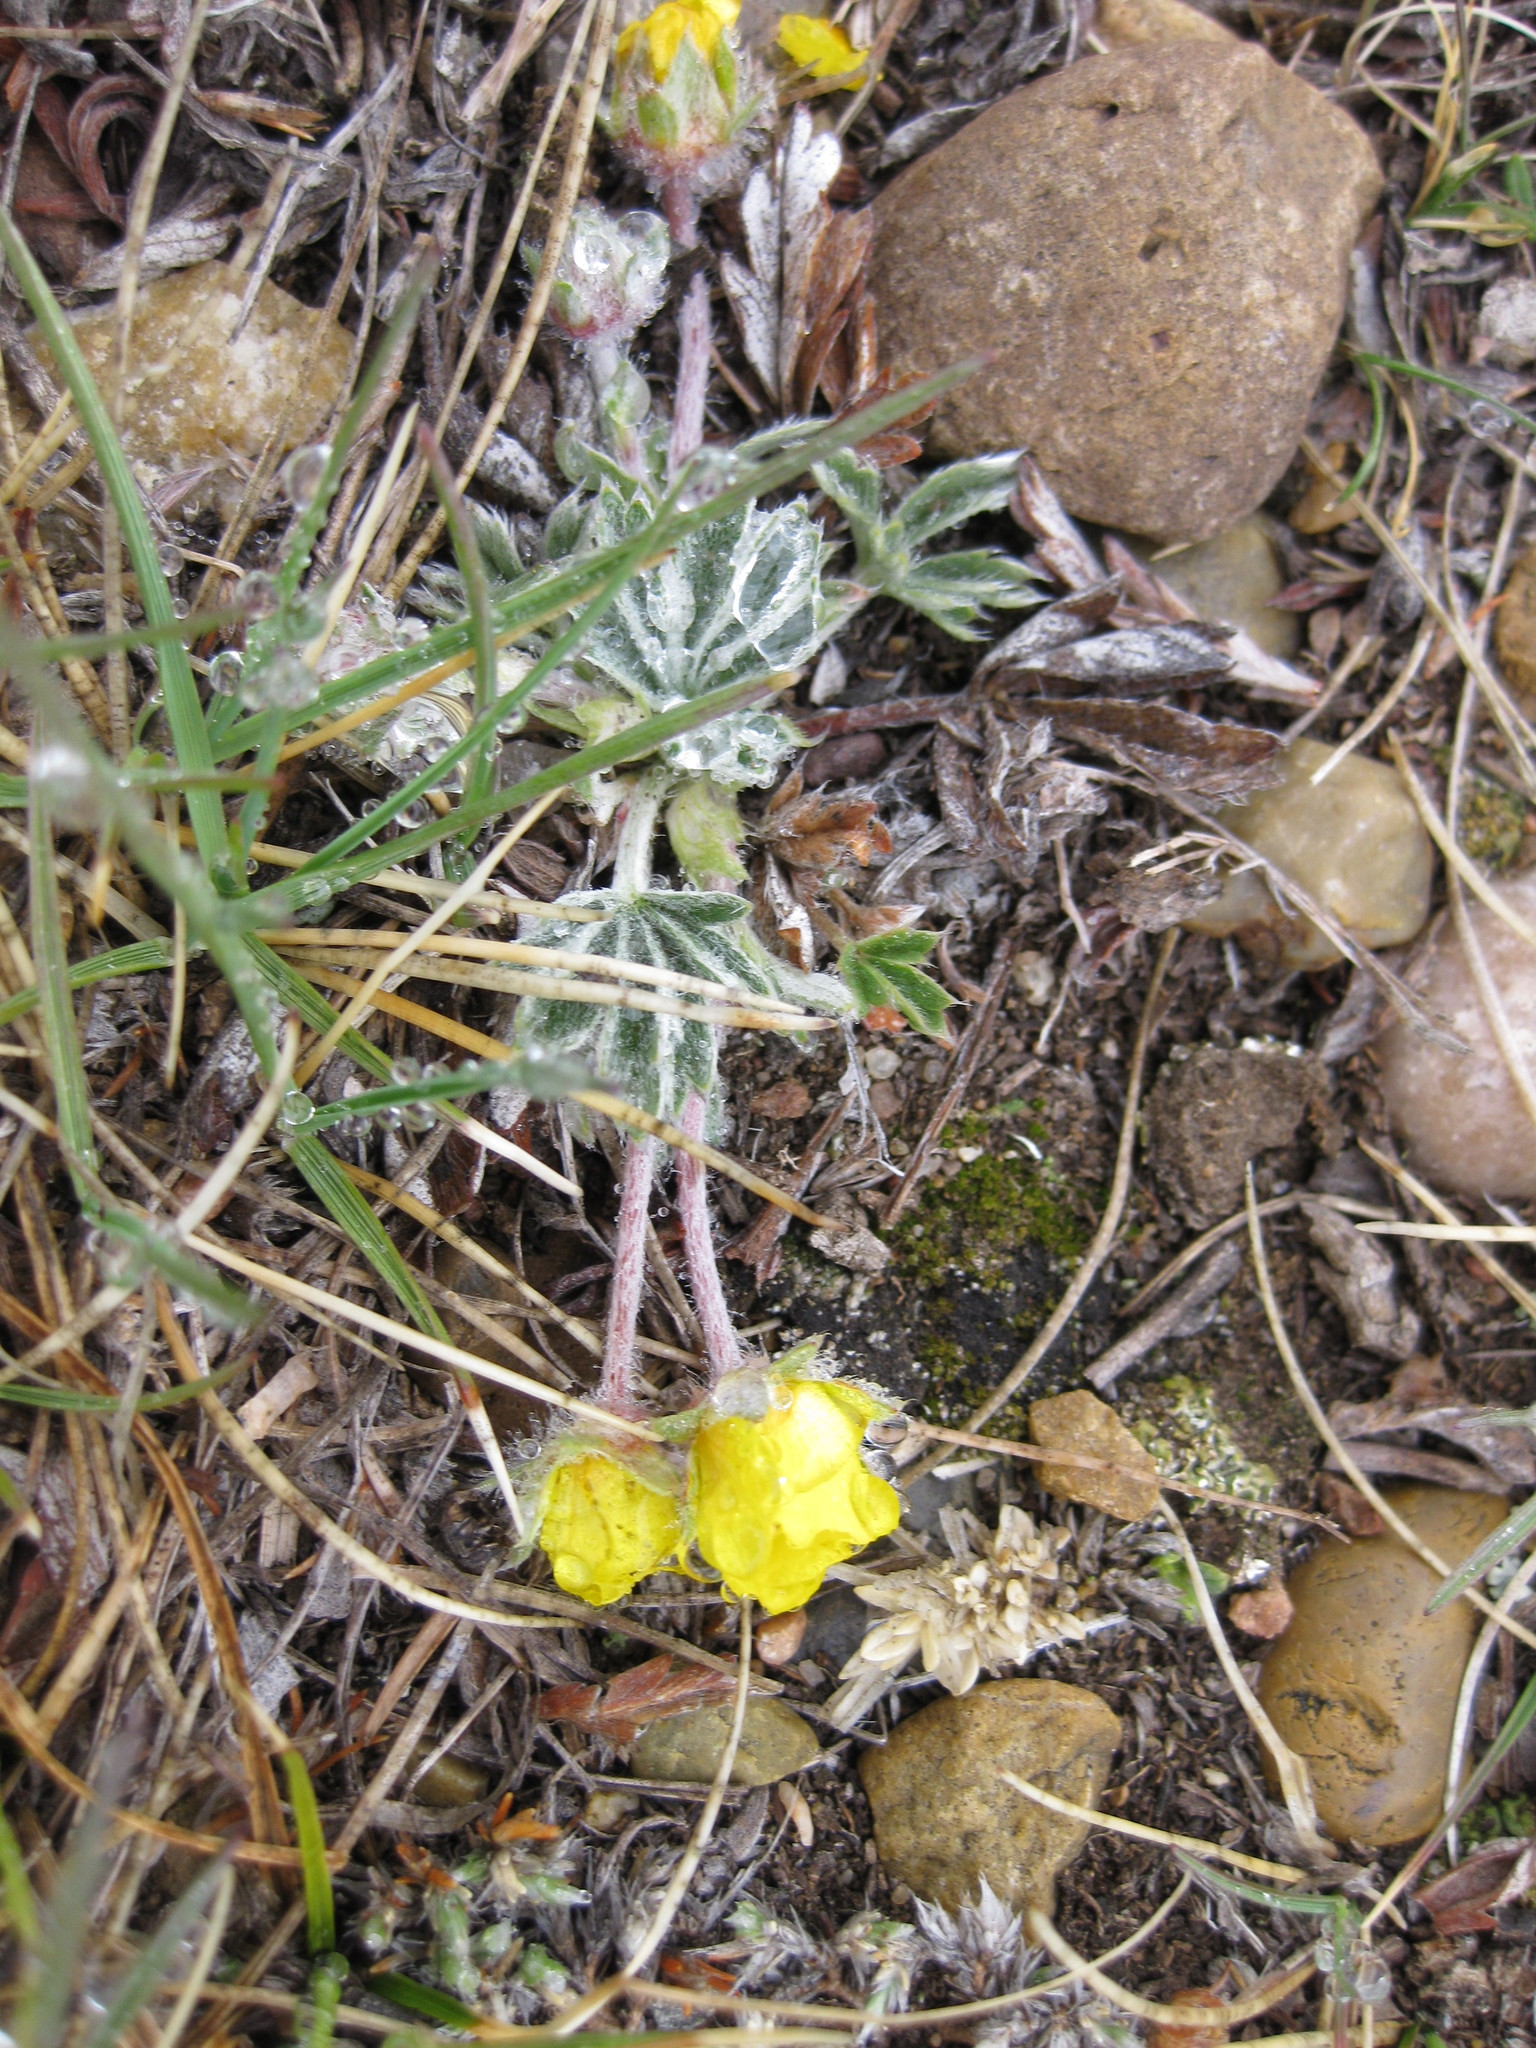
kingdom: Plantae
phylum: Tracheophyta
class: Magnoliopsida
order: Rosales
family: Rosaceae
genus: Potentilla
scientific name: Potentilla concinna
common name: Early cinquefoil
